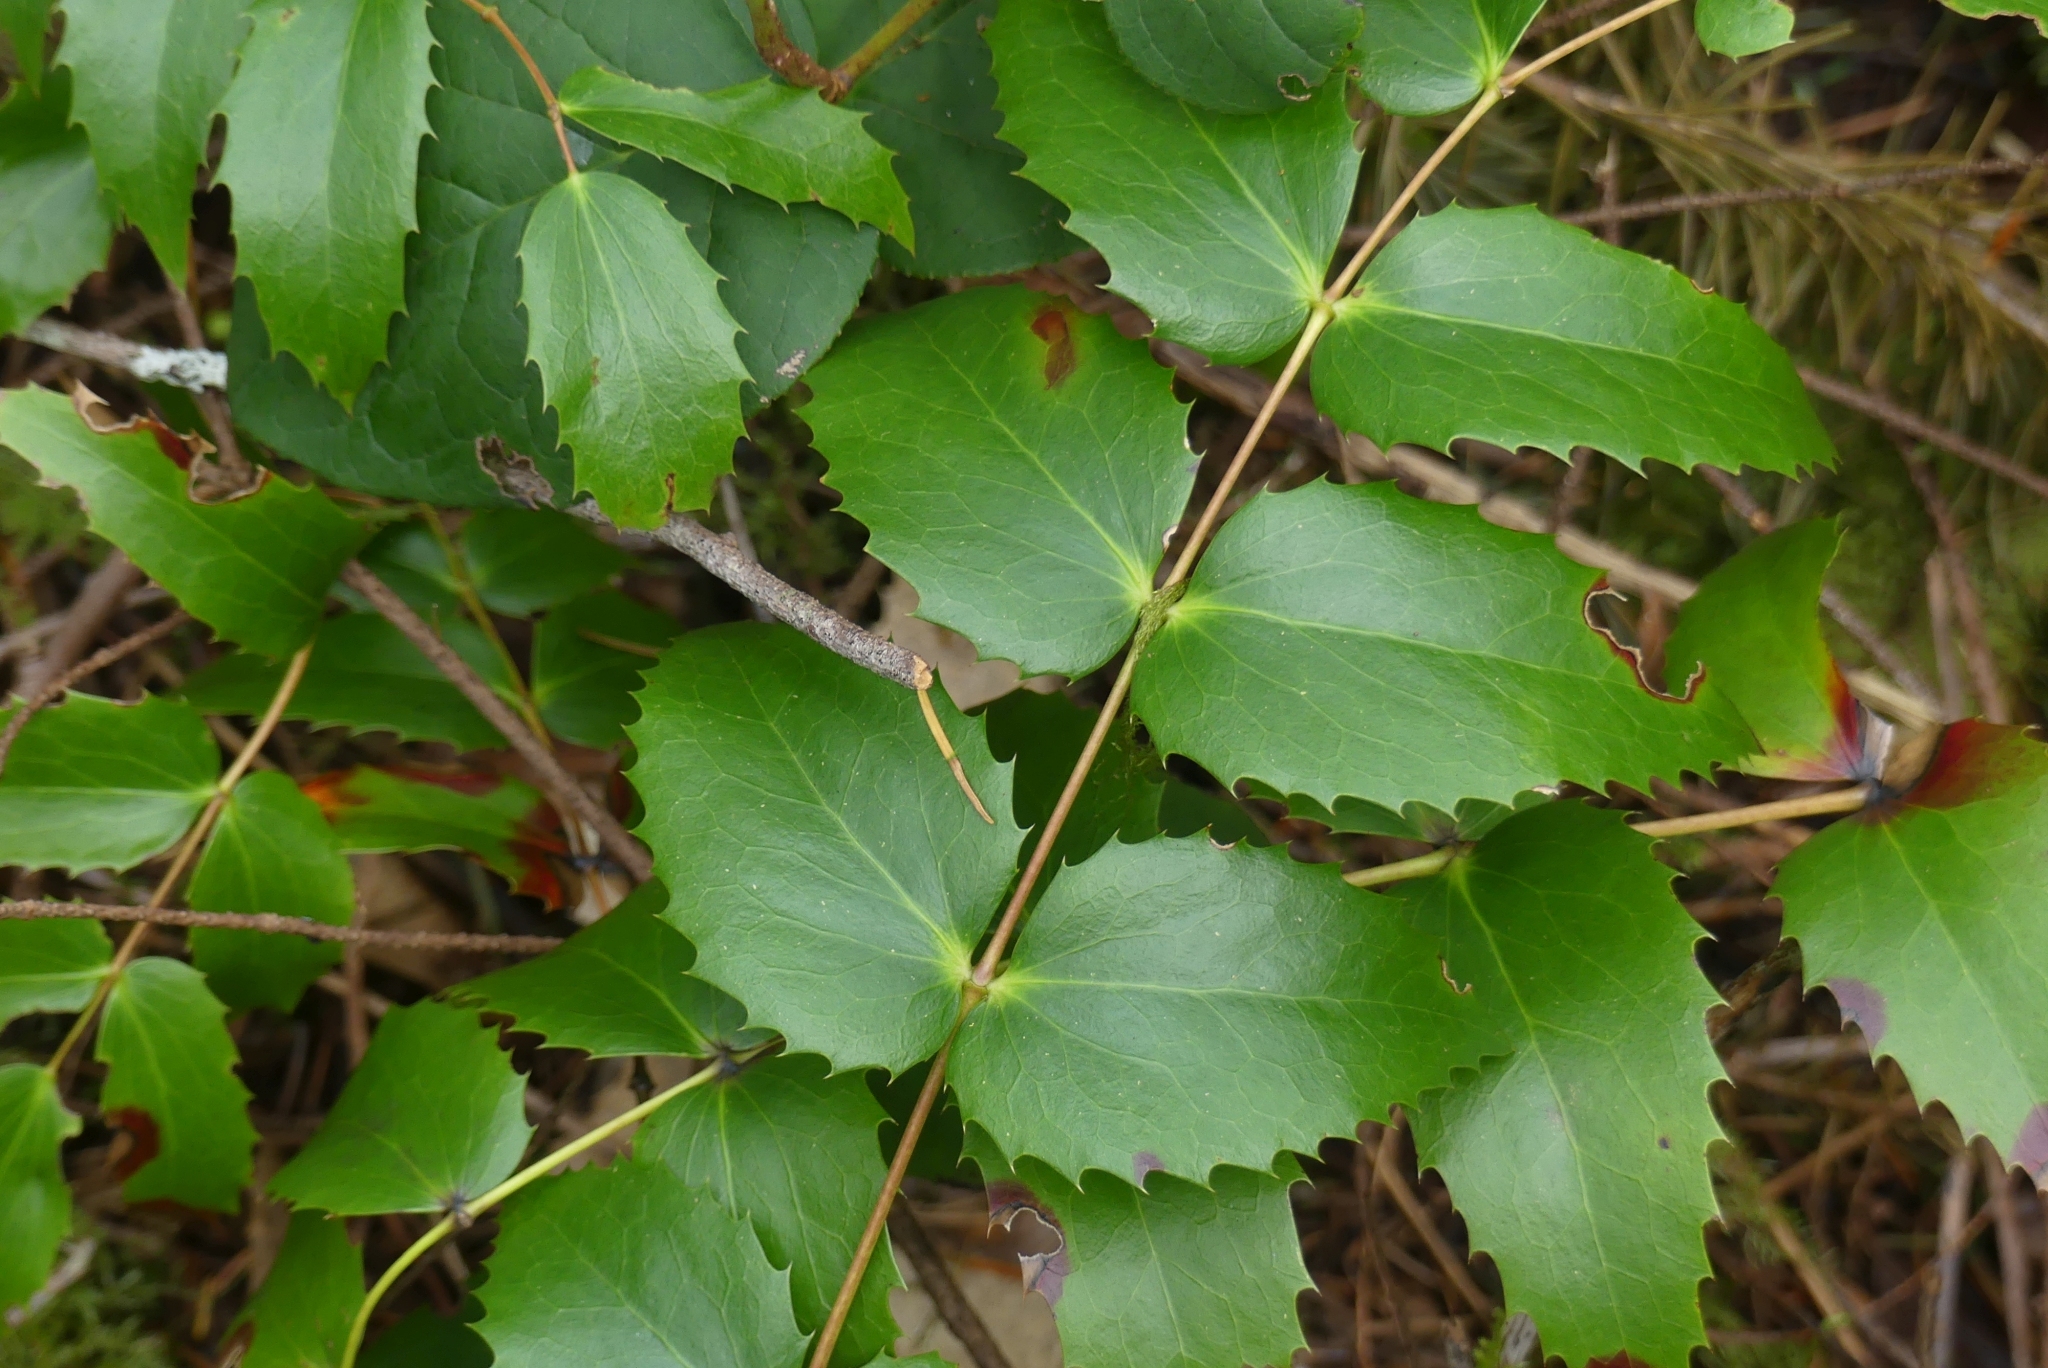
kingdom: Plantae
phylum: Tracheophyta
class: Magnoliopsida
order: Ranunculales
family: Berberidaceae
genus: Mahonia
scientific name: Mahonia nervosa
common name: Cascade oregon-grape
